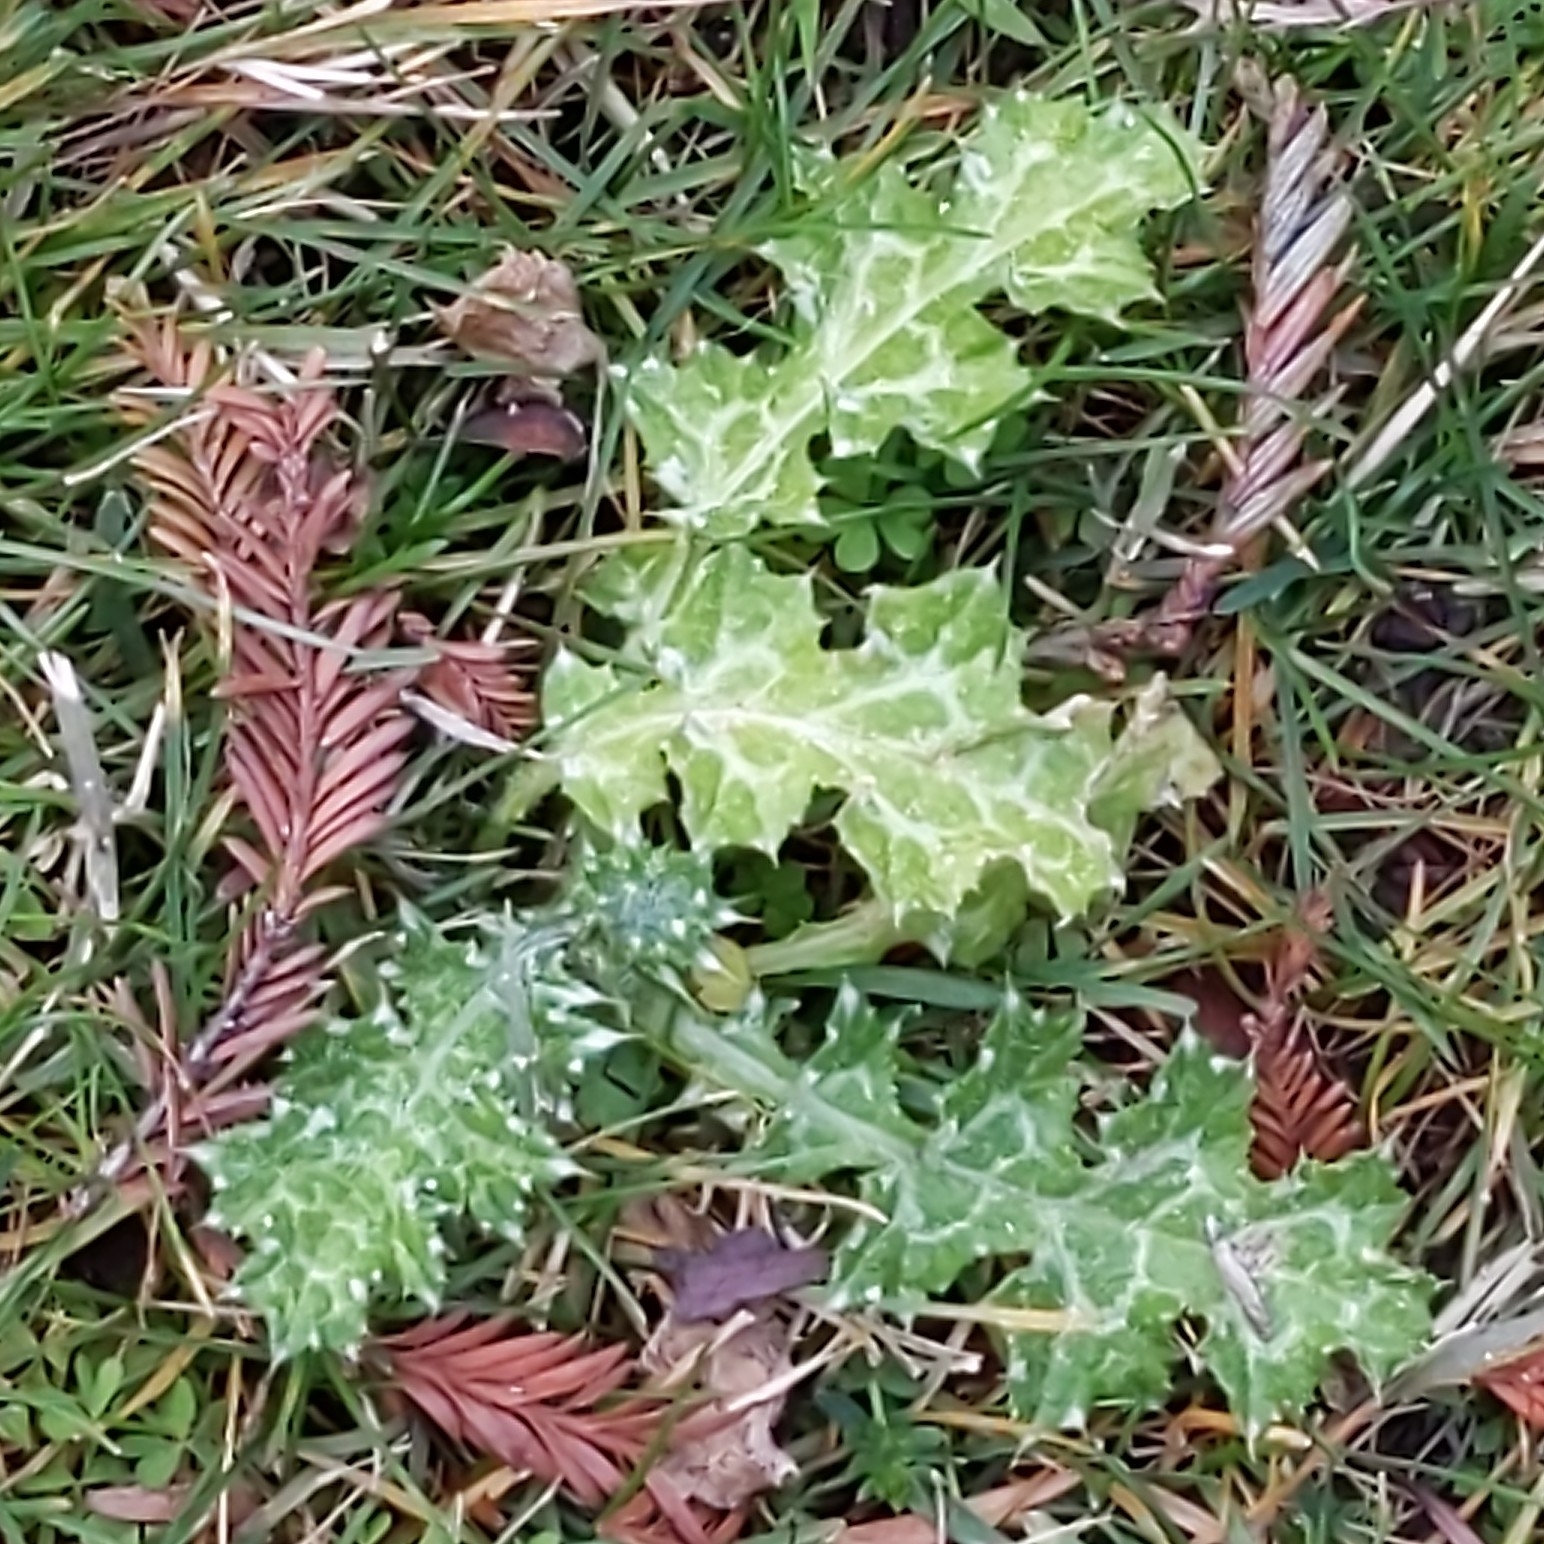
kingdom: Plantae
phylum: Tracheophyta
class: Magnoliopsida
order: Asterales
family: Asteraceae
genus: Carduus
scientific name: Carduus pycnocephalus
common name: Plymouth thistle
